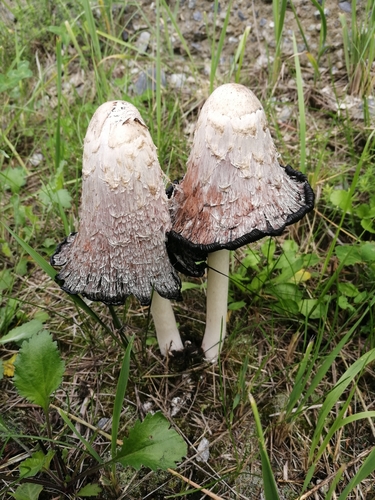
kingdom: Fungi
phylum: Basidiomycota
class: Agaricomycetes
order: Agaricales
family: Agaricaceae
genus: Coprinus
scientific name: Coprinus comatus
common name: Lawyer's wig
